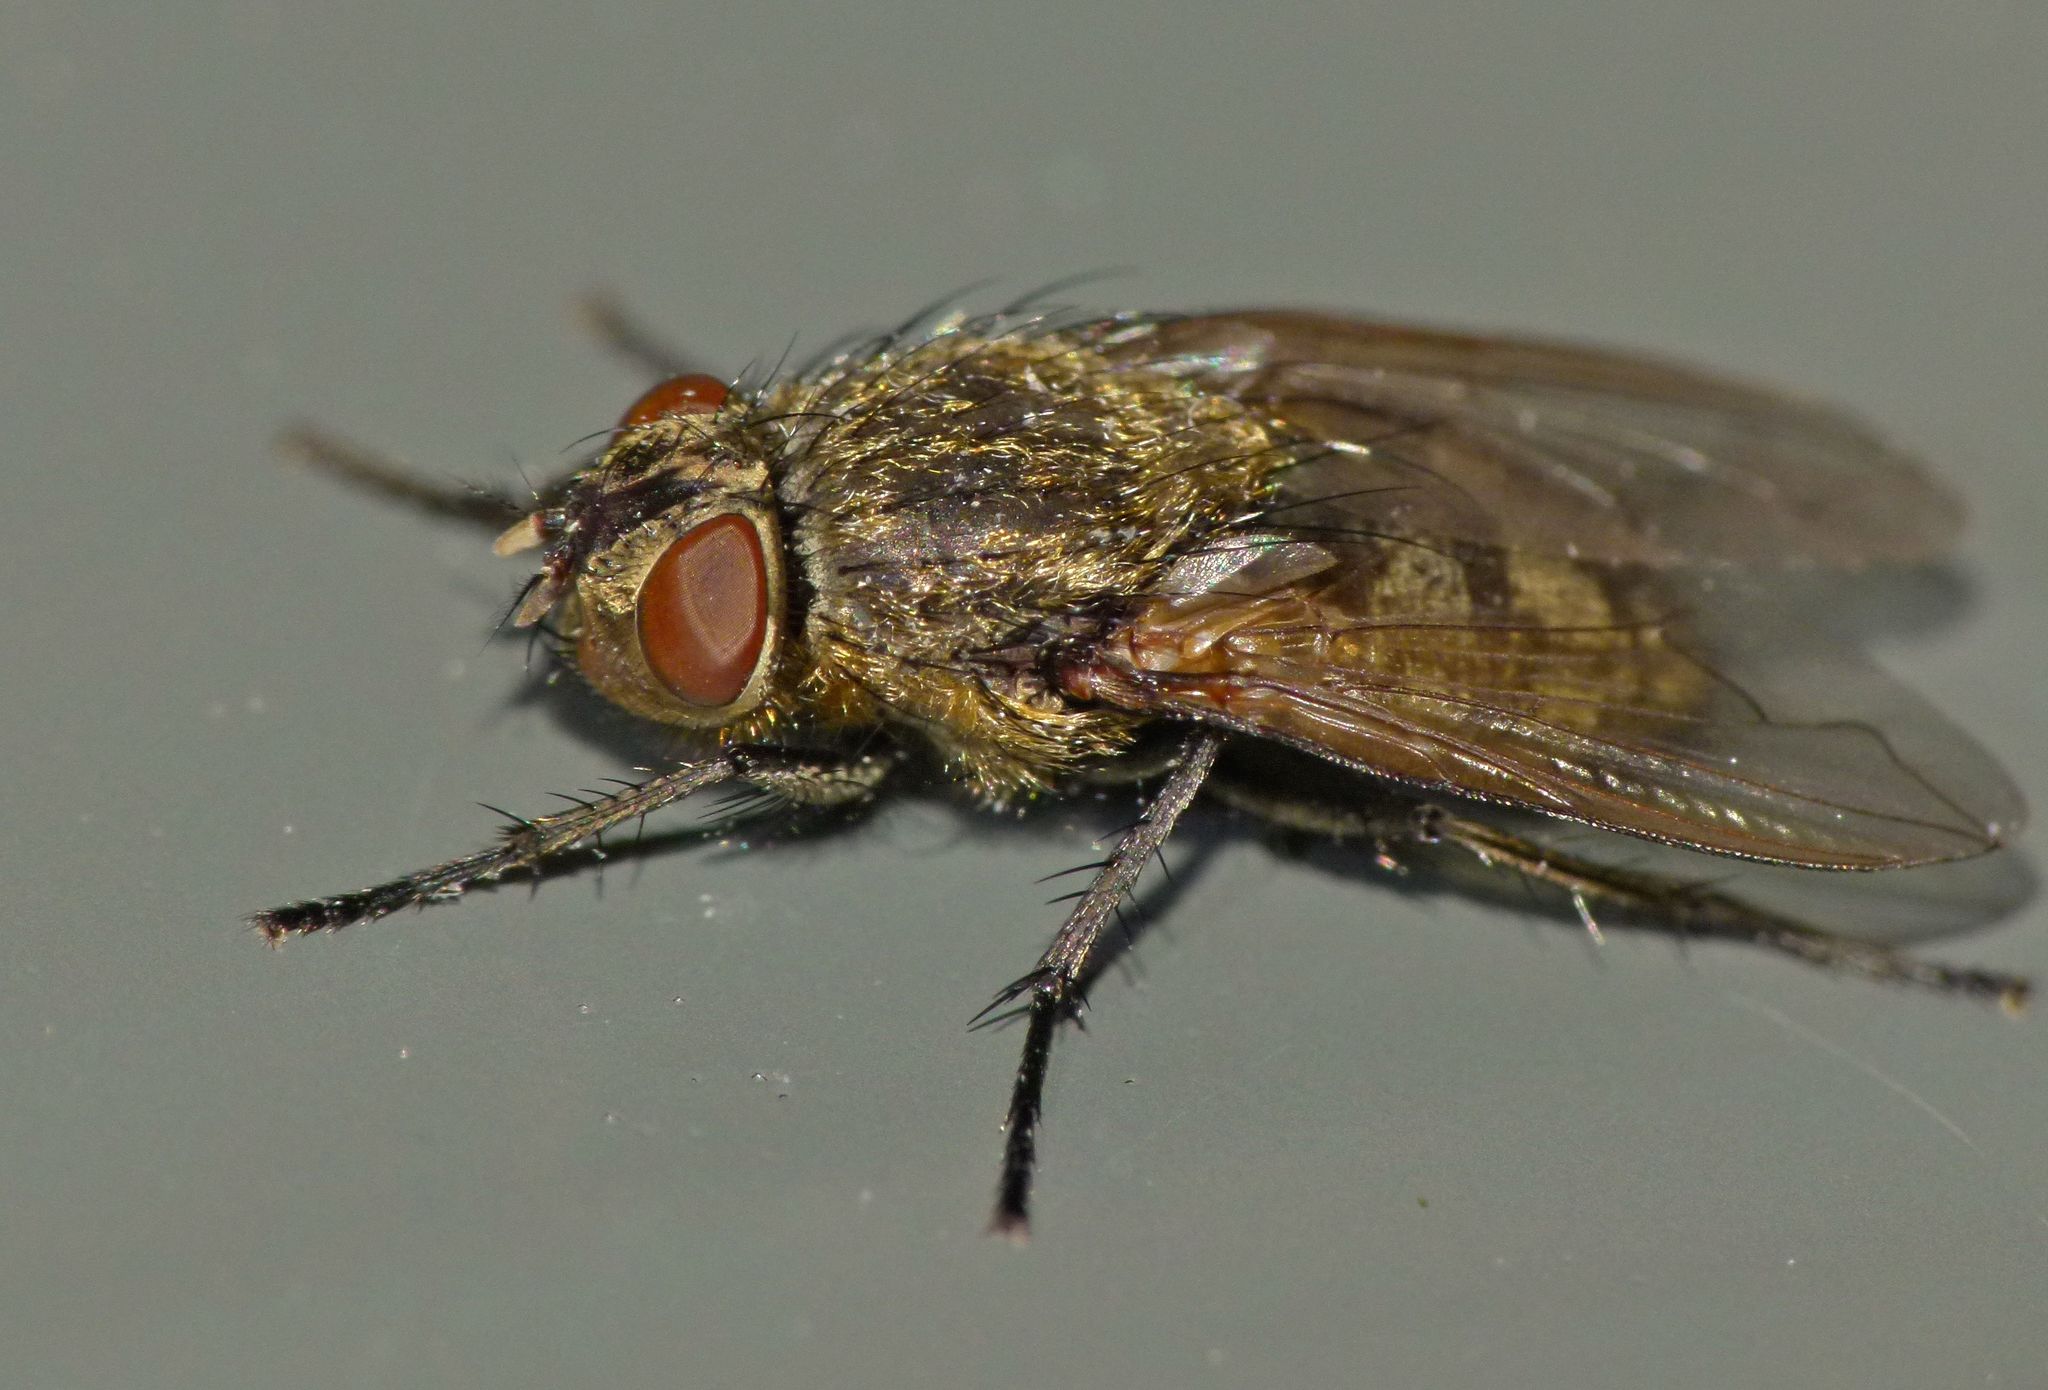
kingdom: Animalia
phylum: Arthropoda
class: Insecta
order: Diptera
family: Polleniidae
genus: Pollenia
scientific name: Pollenia pediculata
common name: Tufted clusterfly
